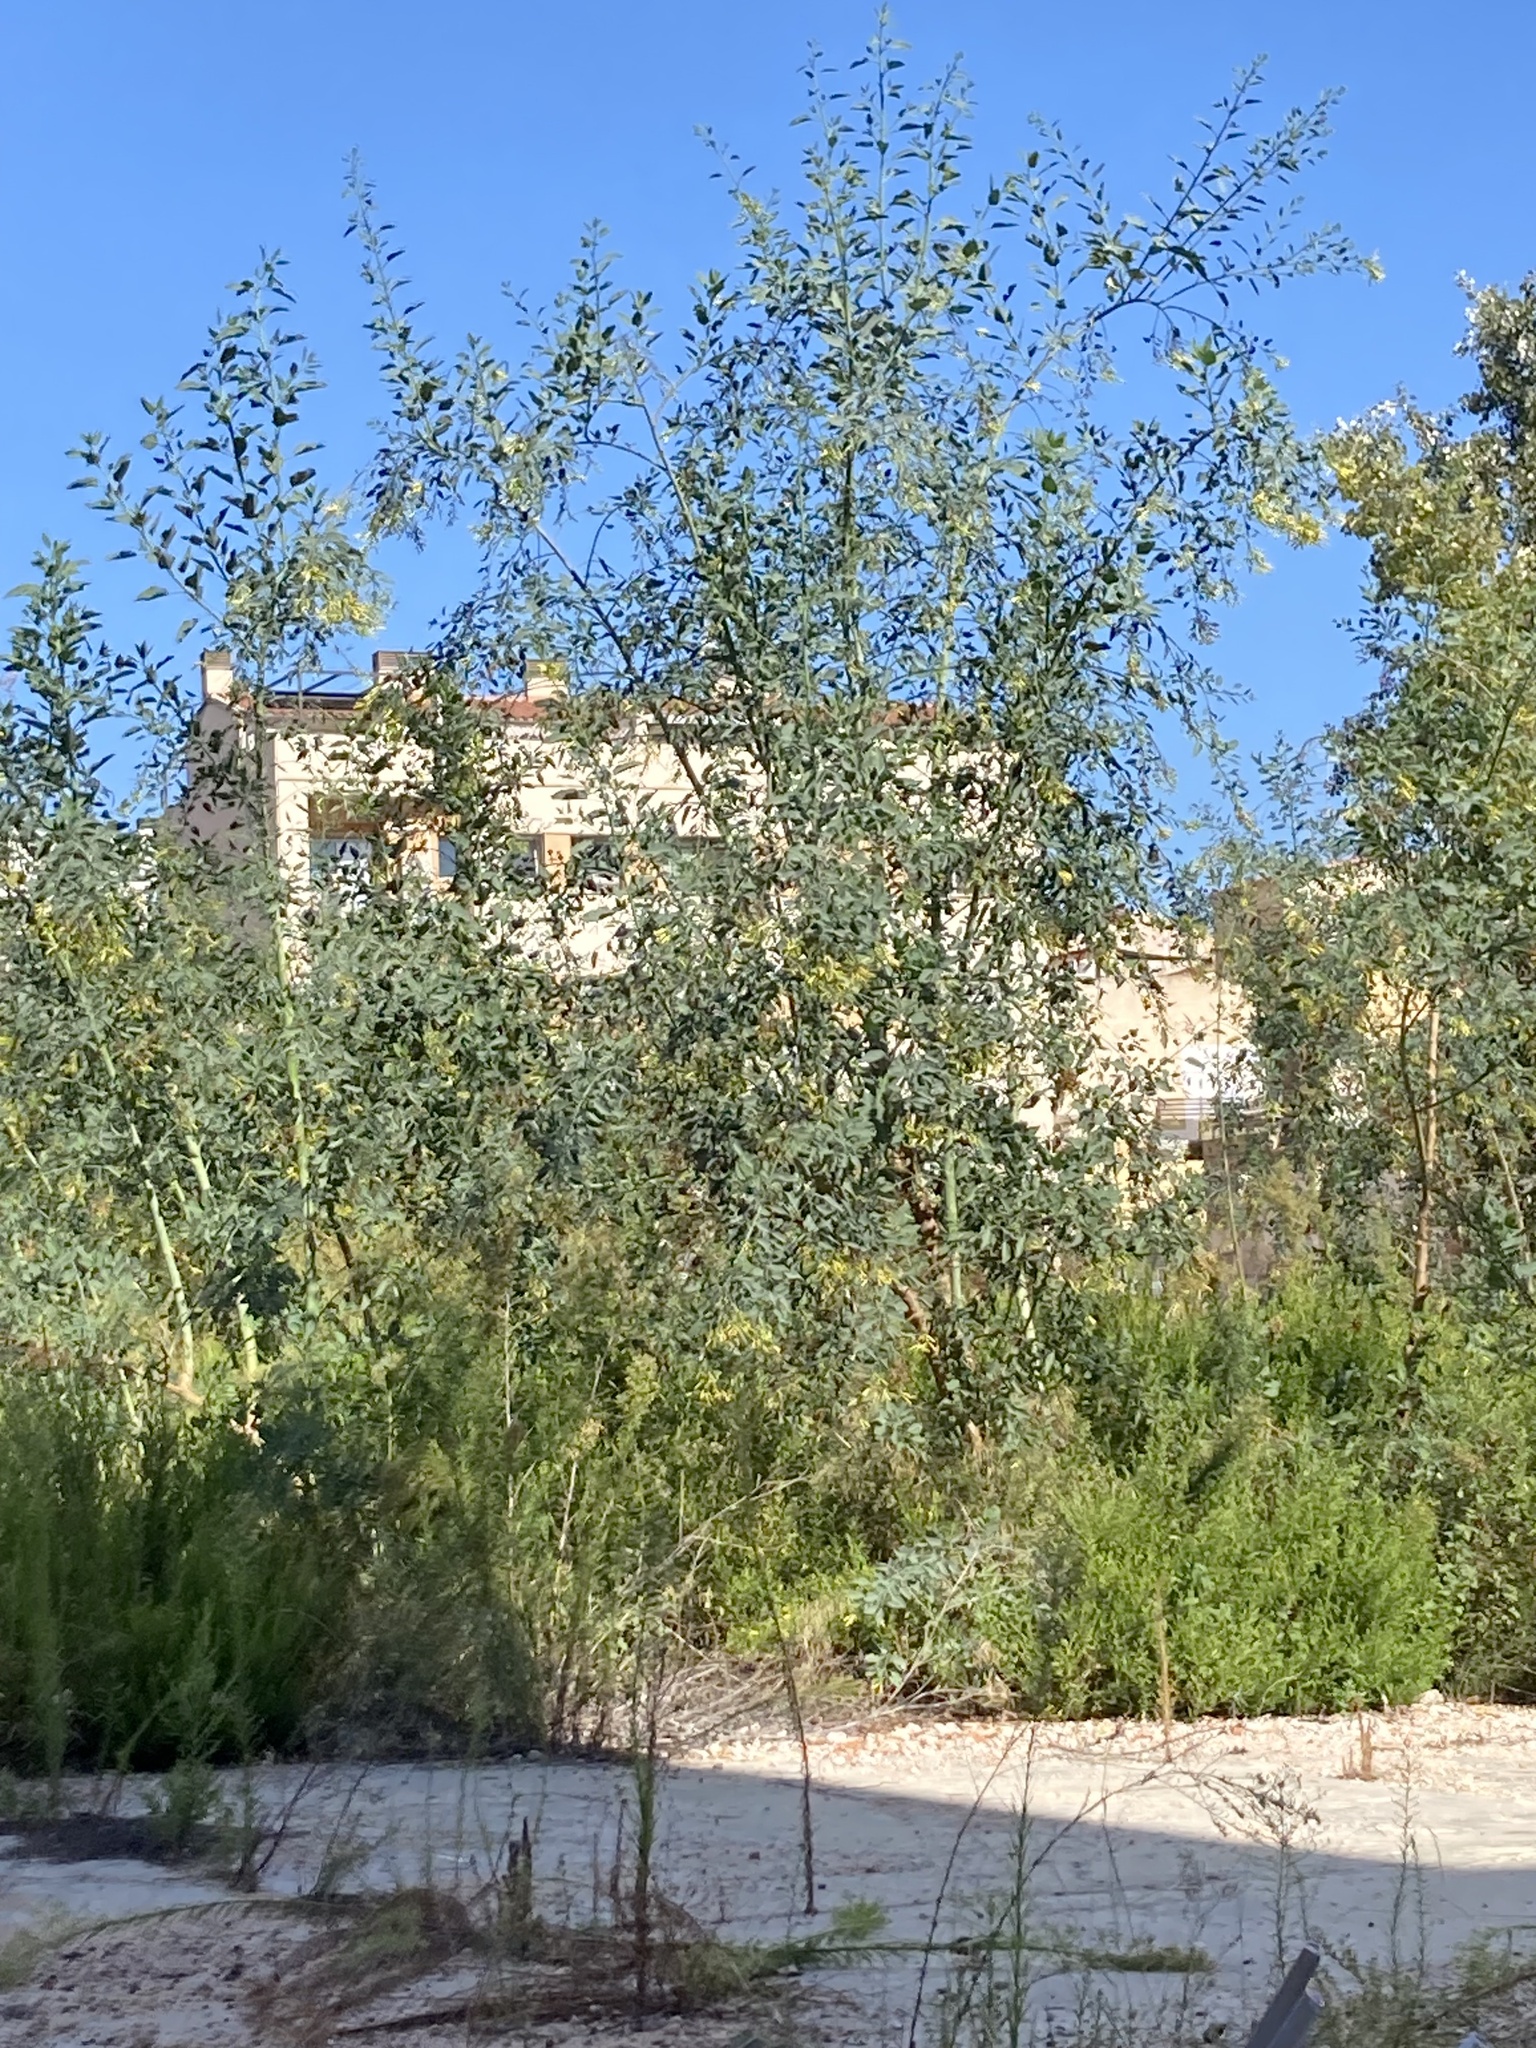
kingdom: Plantae
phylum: Tracheophyta
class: Magnoliopsida
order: Solanales
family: Solanaceae
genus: Nicotiana
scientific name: Nicotiana glauca
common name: Tree tobacco
